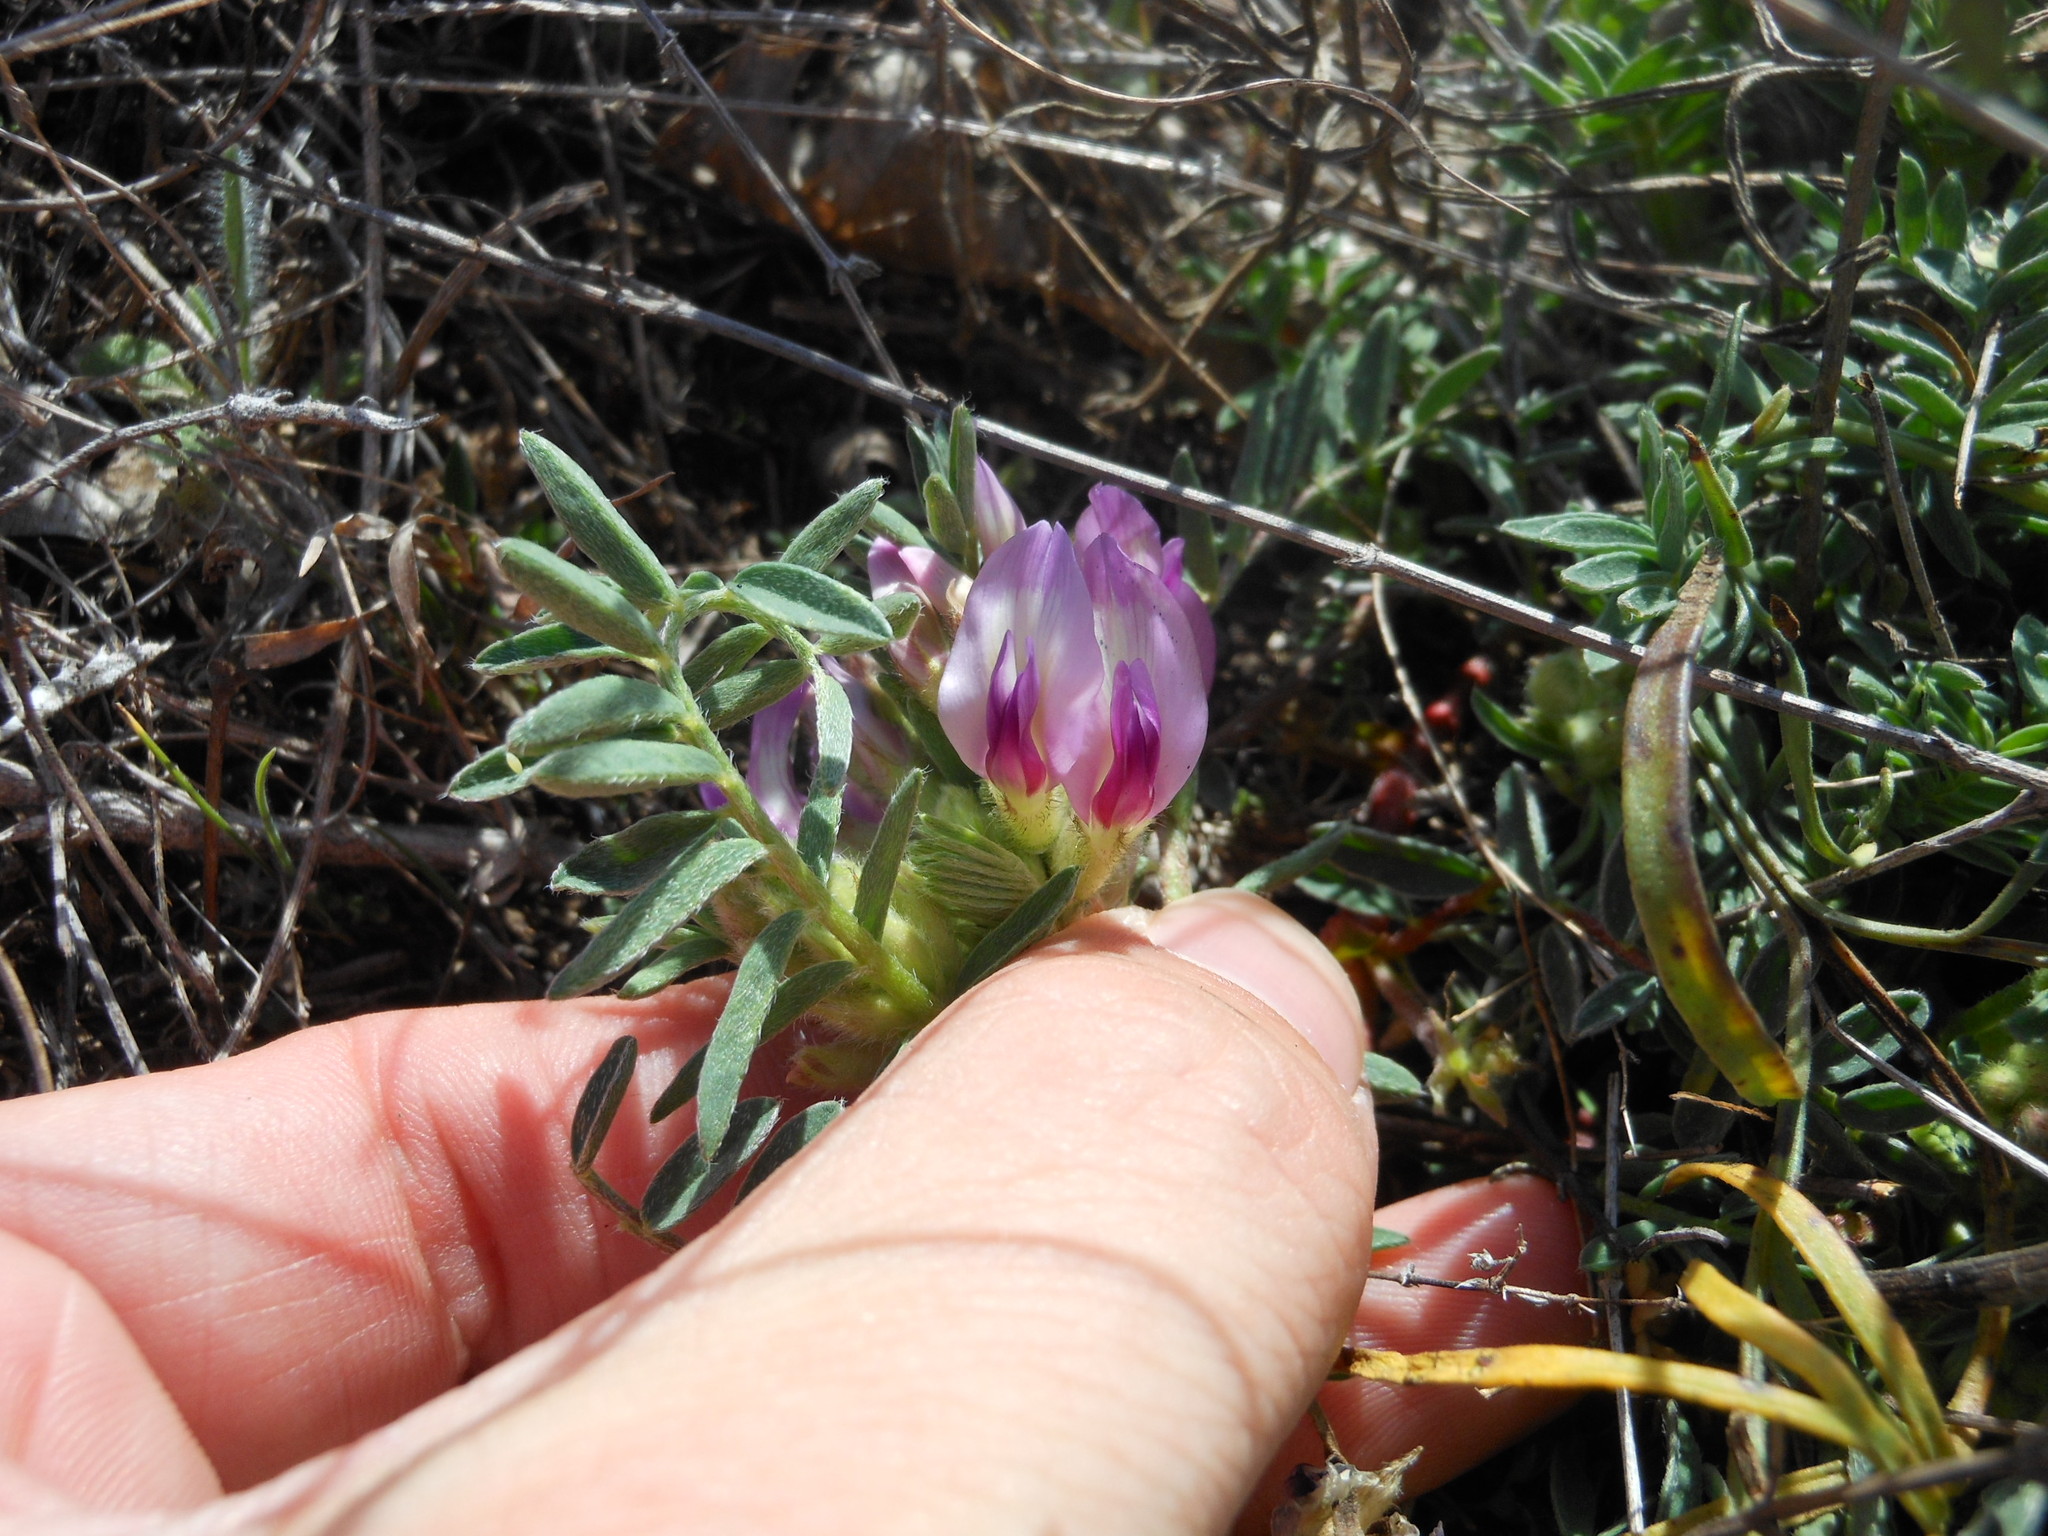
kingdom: Plantae
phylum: Tracheophyta
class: Magnoliopsida
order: Fabales
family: Fabaceae
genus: Astragalus
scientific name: Astragalus crassicarpus
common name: Ground-plum milk-vetch
